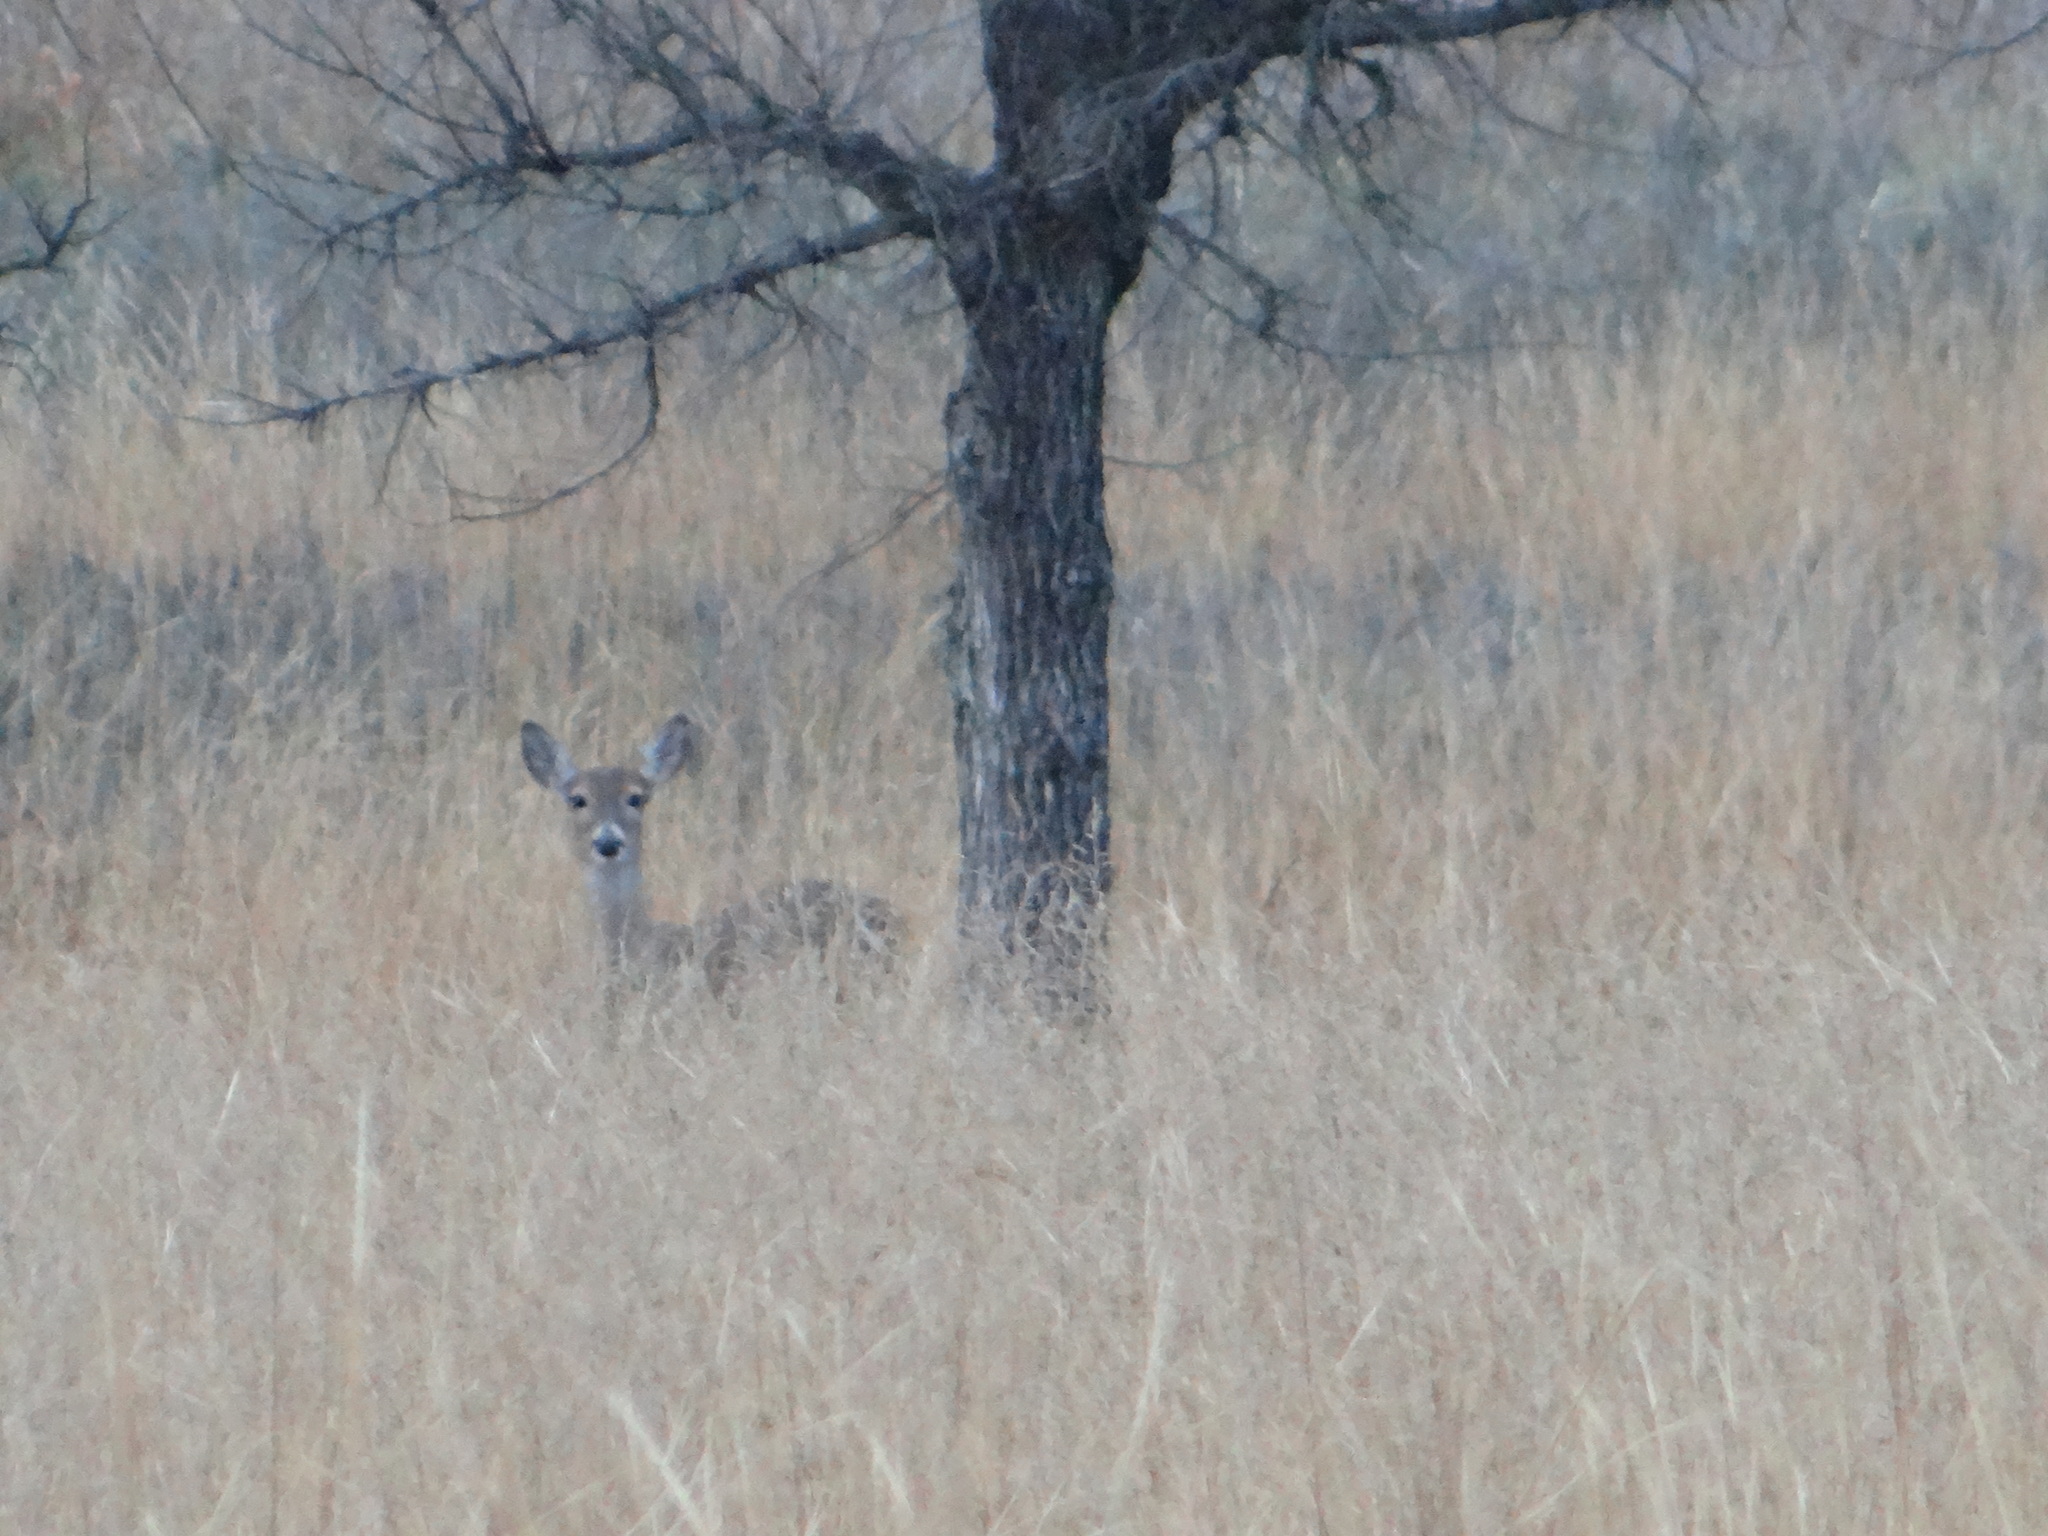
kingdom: Animalia
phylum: Chordata
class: Mammalia
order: Artiodactyla
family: Cervidae
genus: Odocoileus
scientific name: Odocoileus virginianus
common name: White-tailed deer
